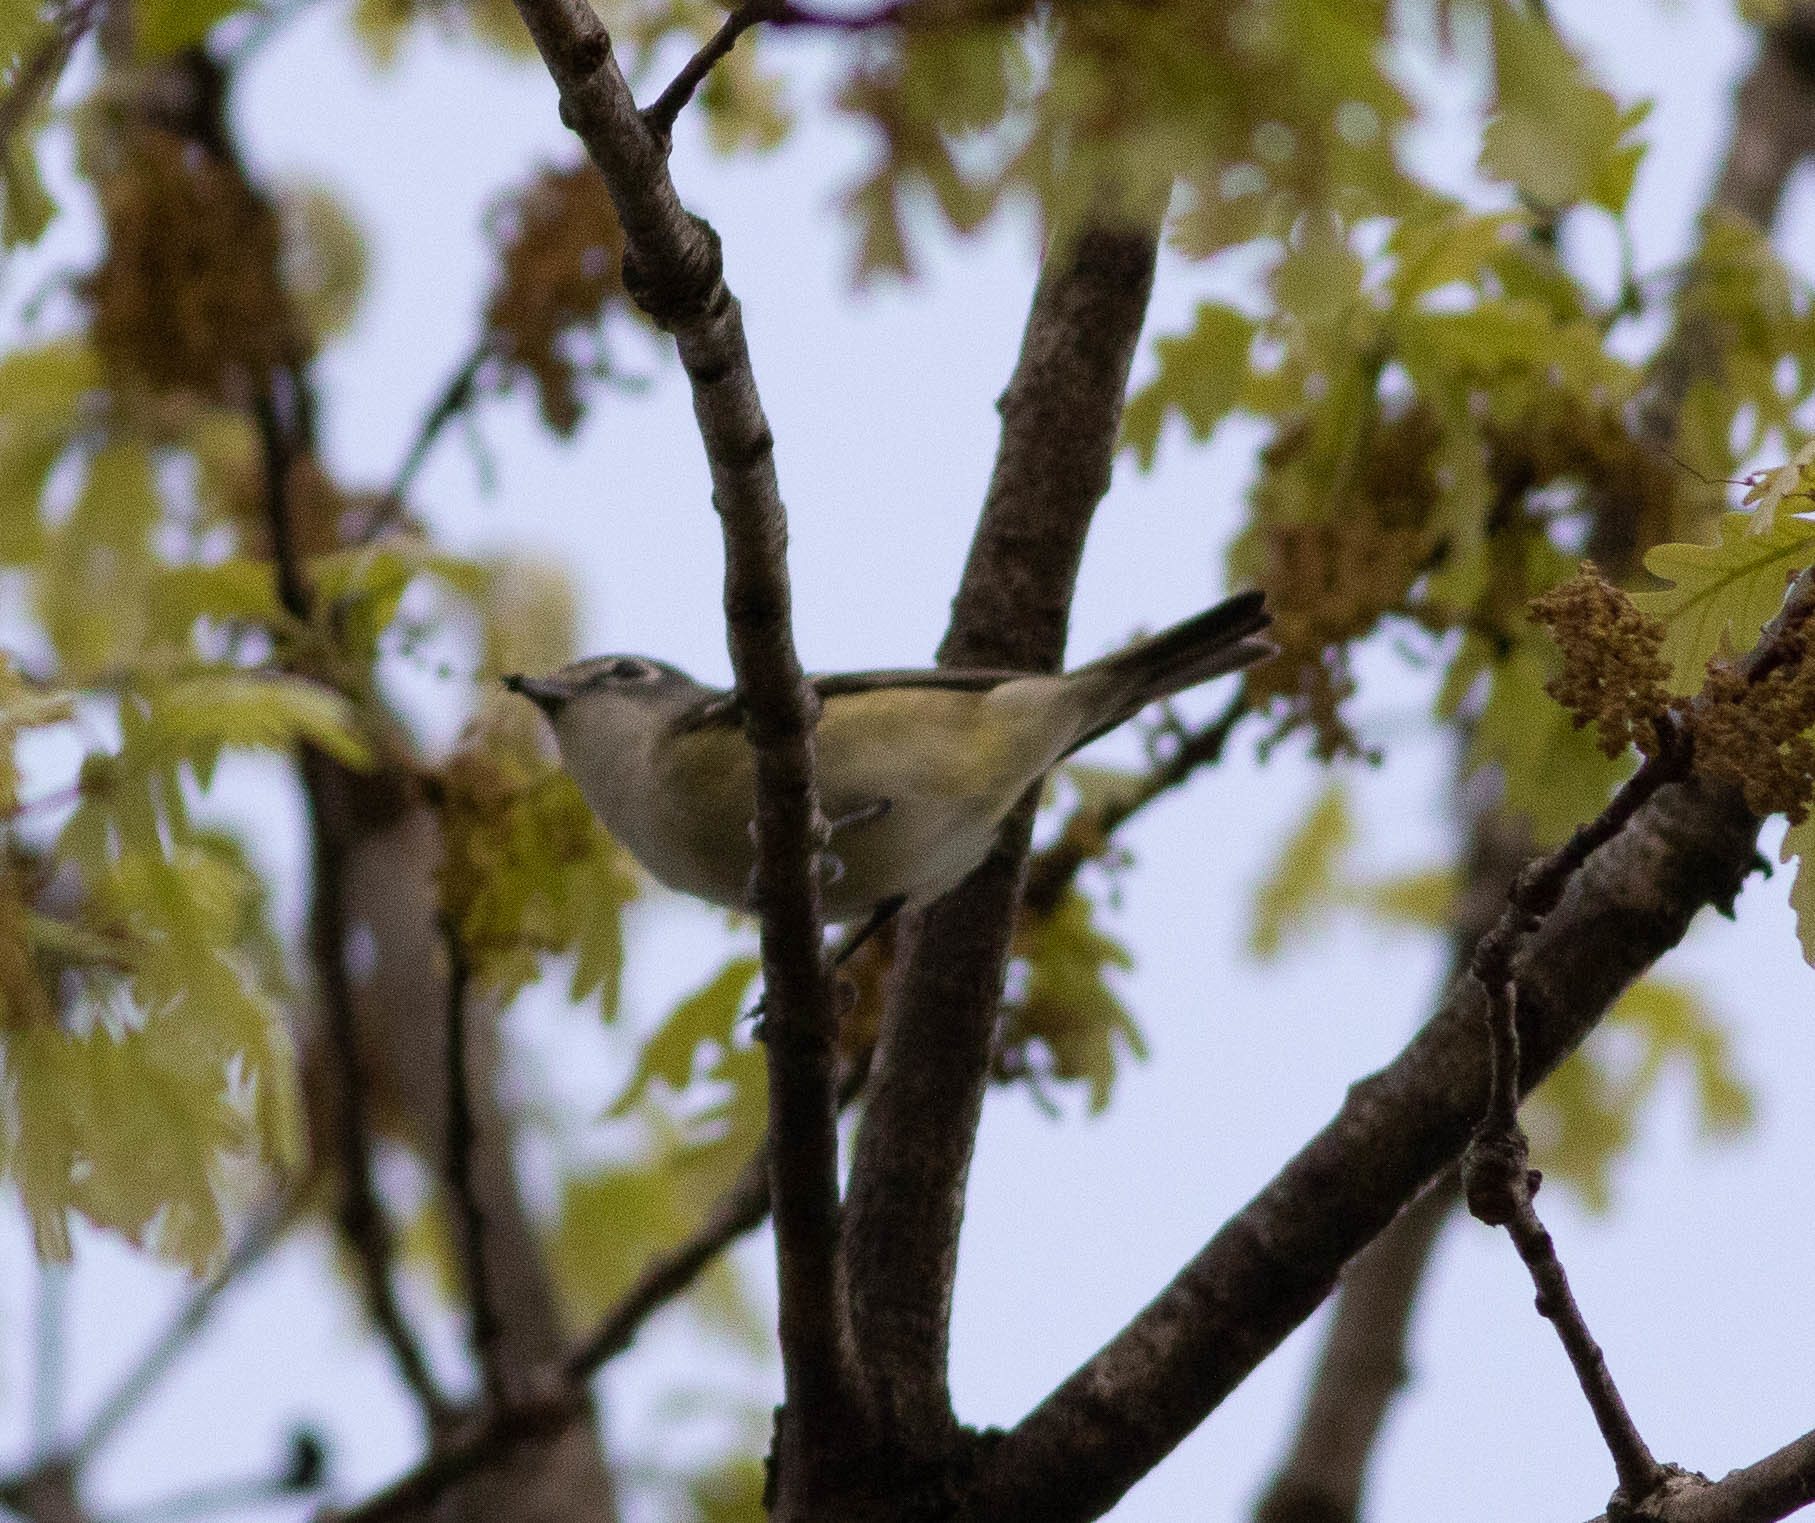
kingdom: Animalia
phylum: Chordata
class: Aves
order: Passeriformes
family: Vireonidae
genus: Vireo
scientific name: Vireo solitarius
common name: Blue-headed vireo
